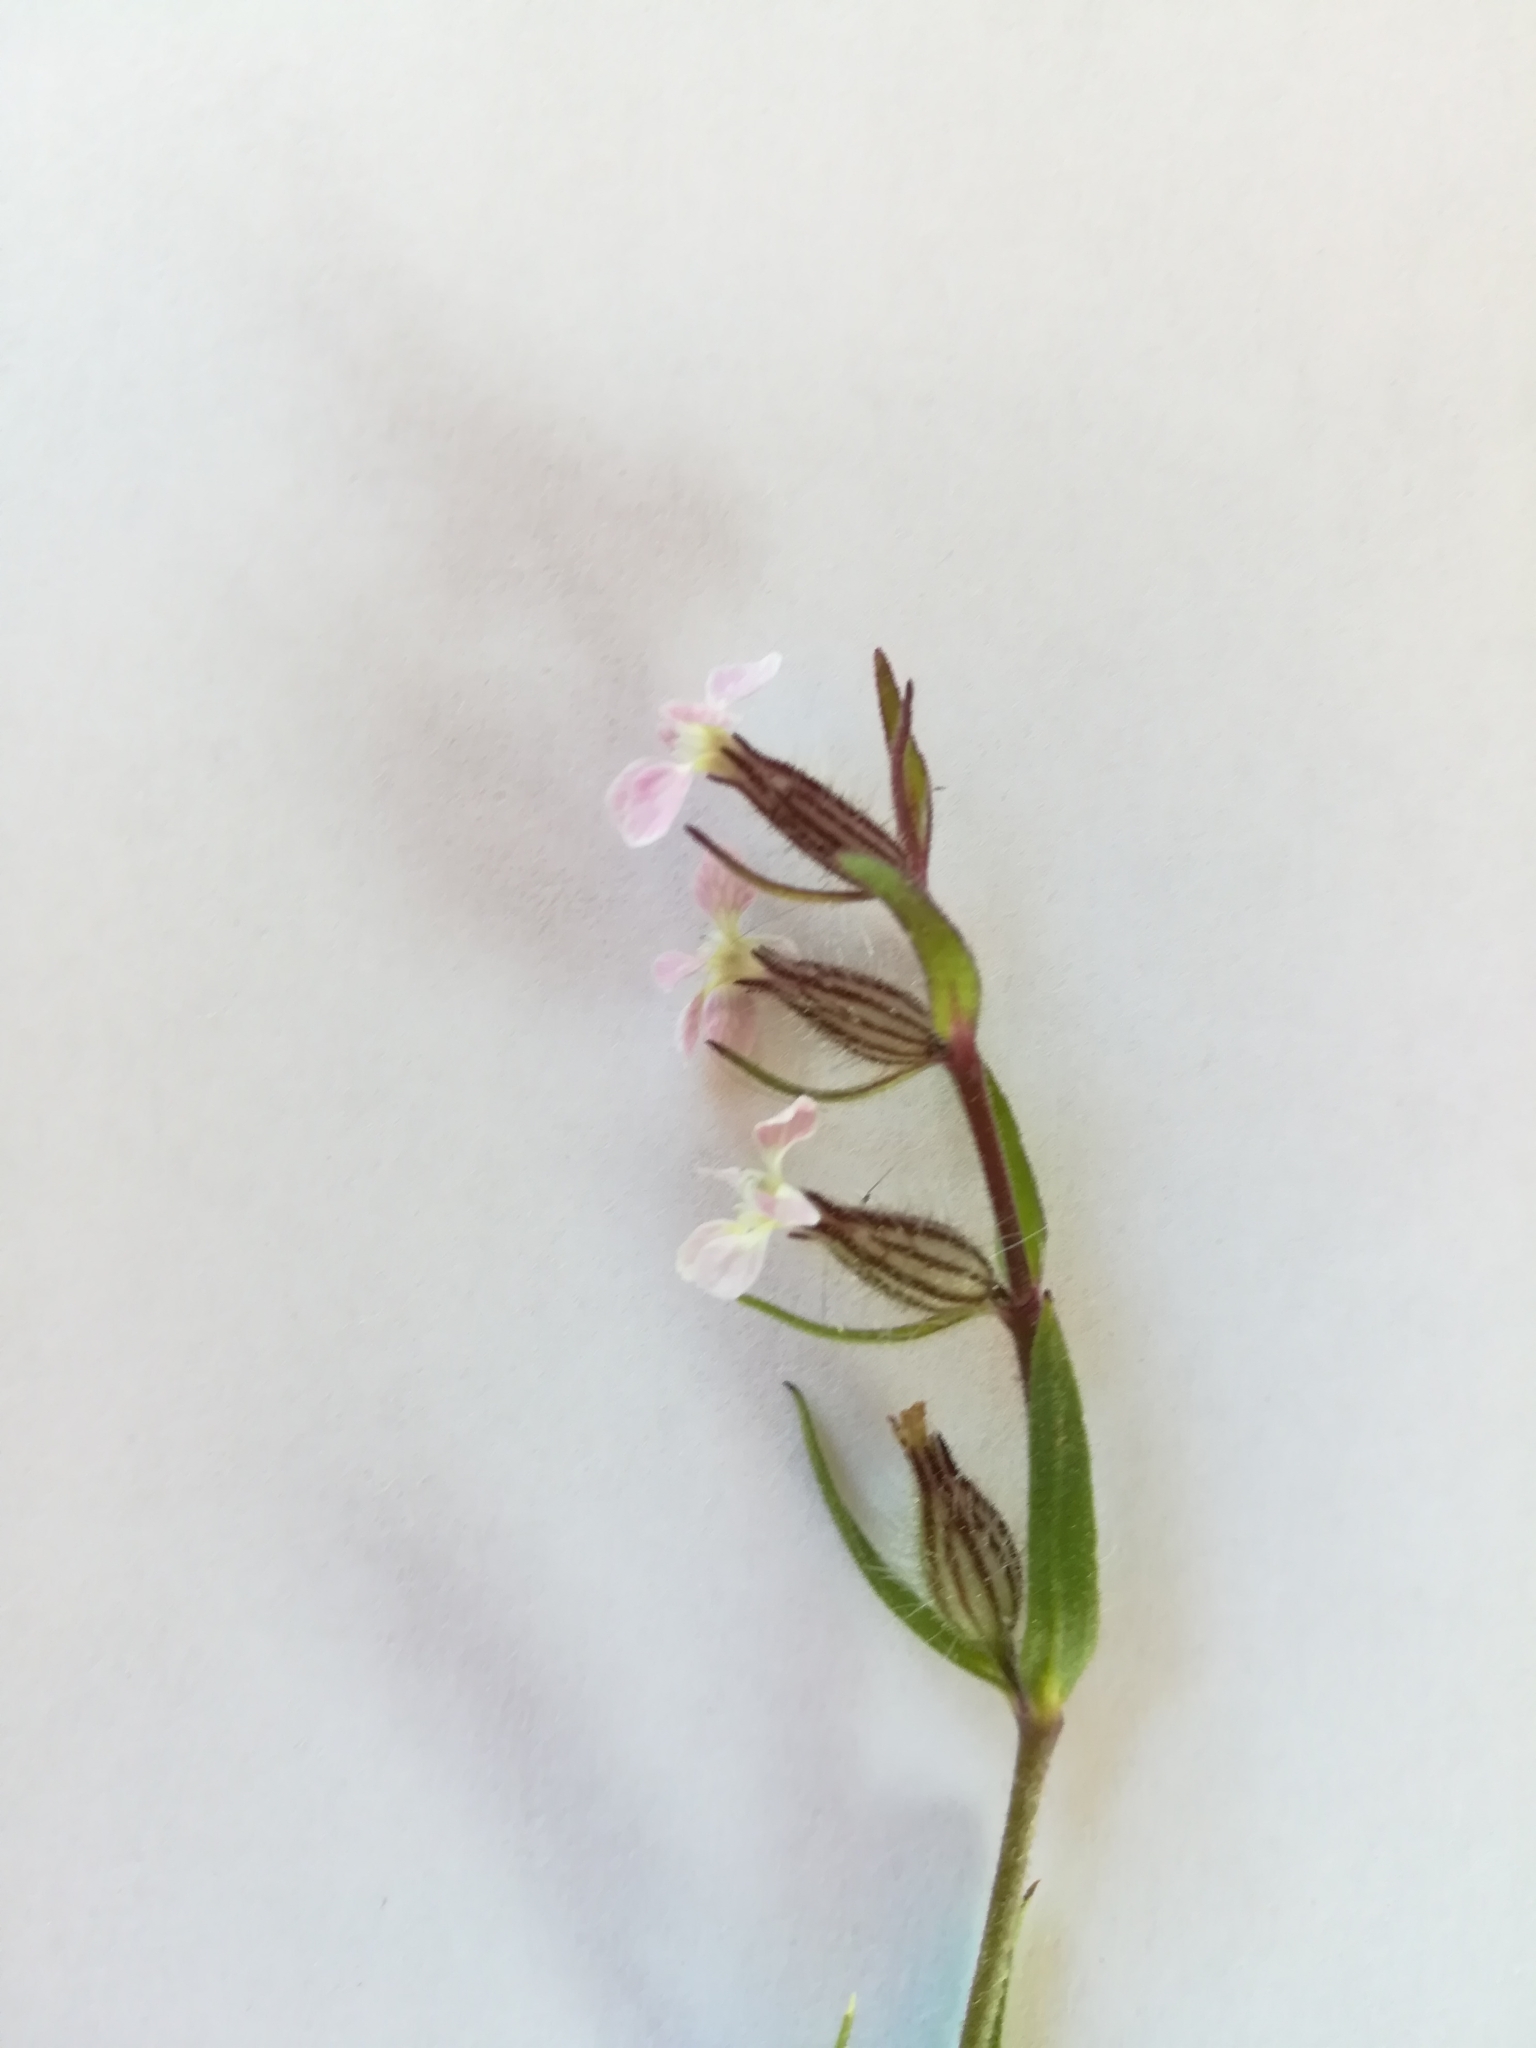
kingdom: Plantae
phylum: Tracheophyta
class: Magnoliopsida
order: Caryophyllales
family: Caryophyllaceae
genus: Silene
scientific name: Silene gallica
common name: Small-flowered catchfly
